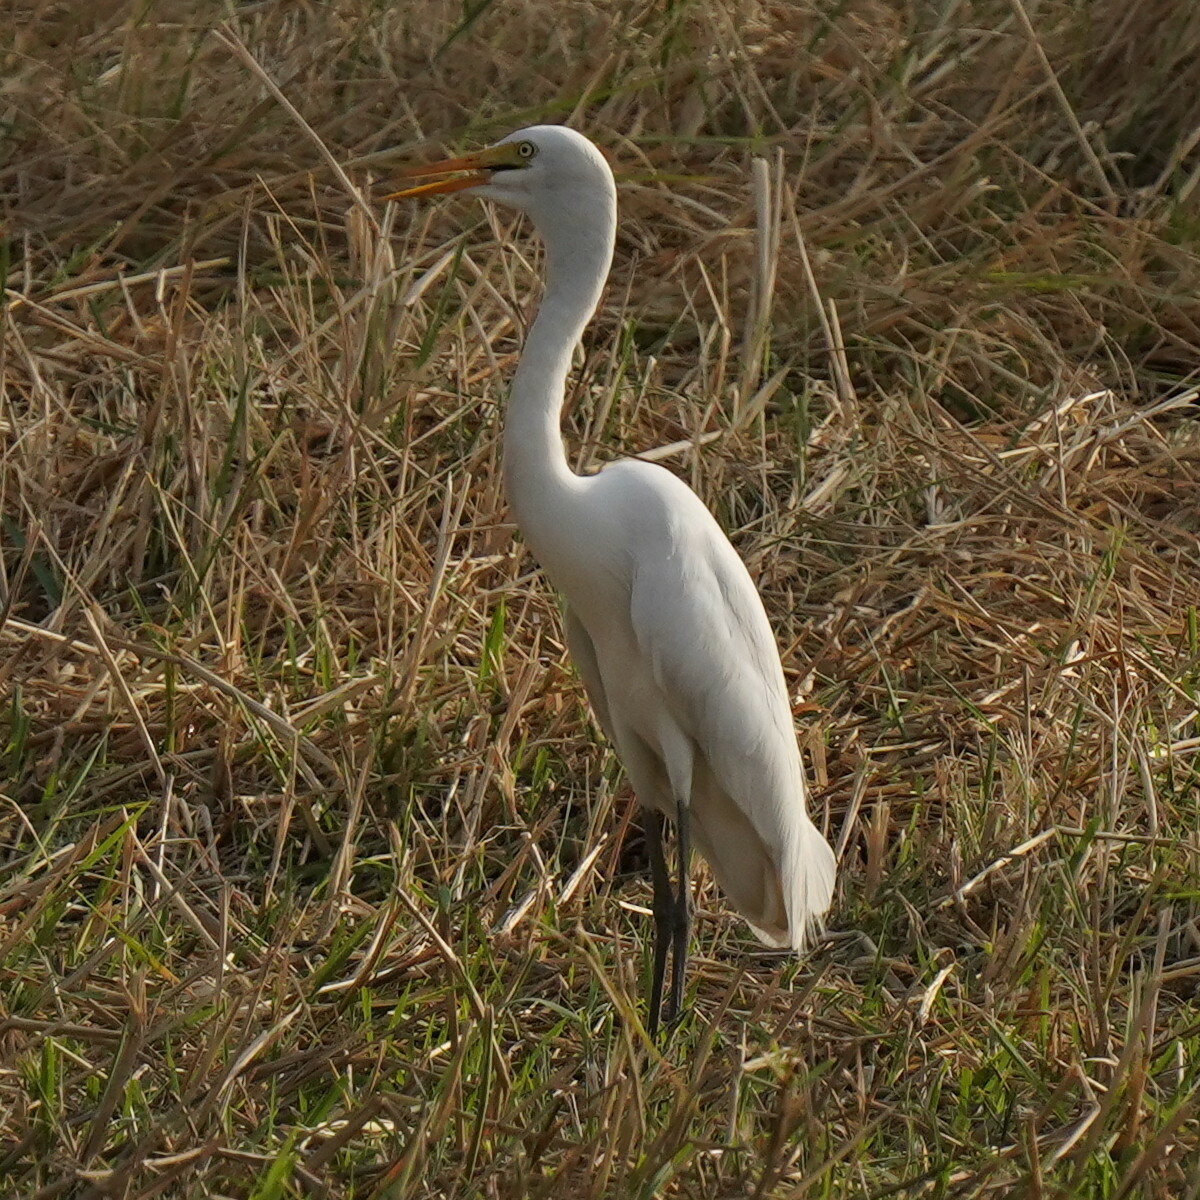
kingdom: Animalia
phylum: Chordata
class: Aves
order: Pelecaniformes
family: Ardeidae
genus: Egretta
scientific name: Egretta intermedia
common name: Intermediate egret
